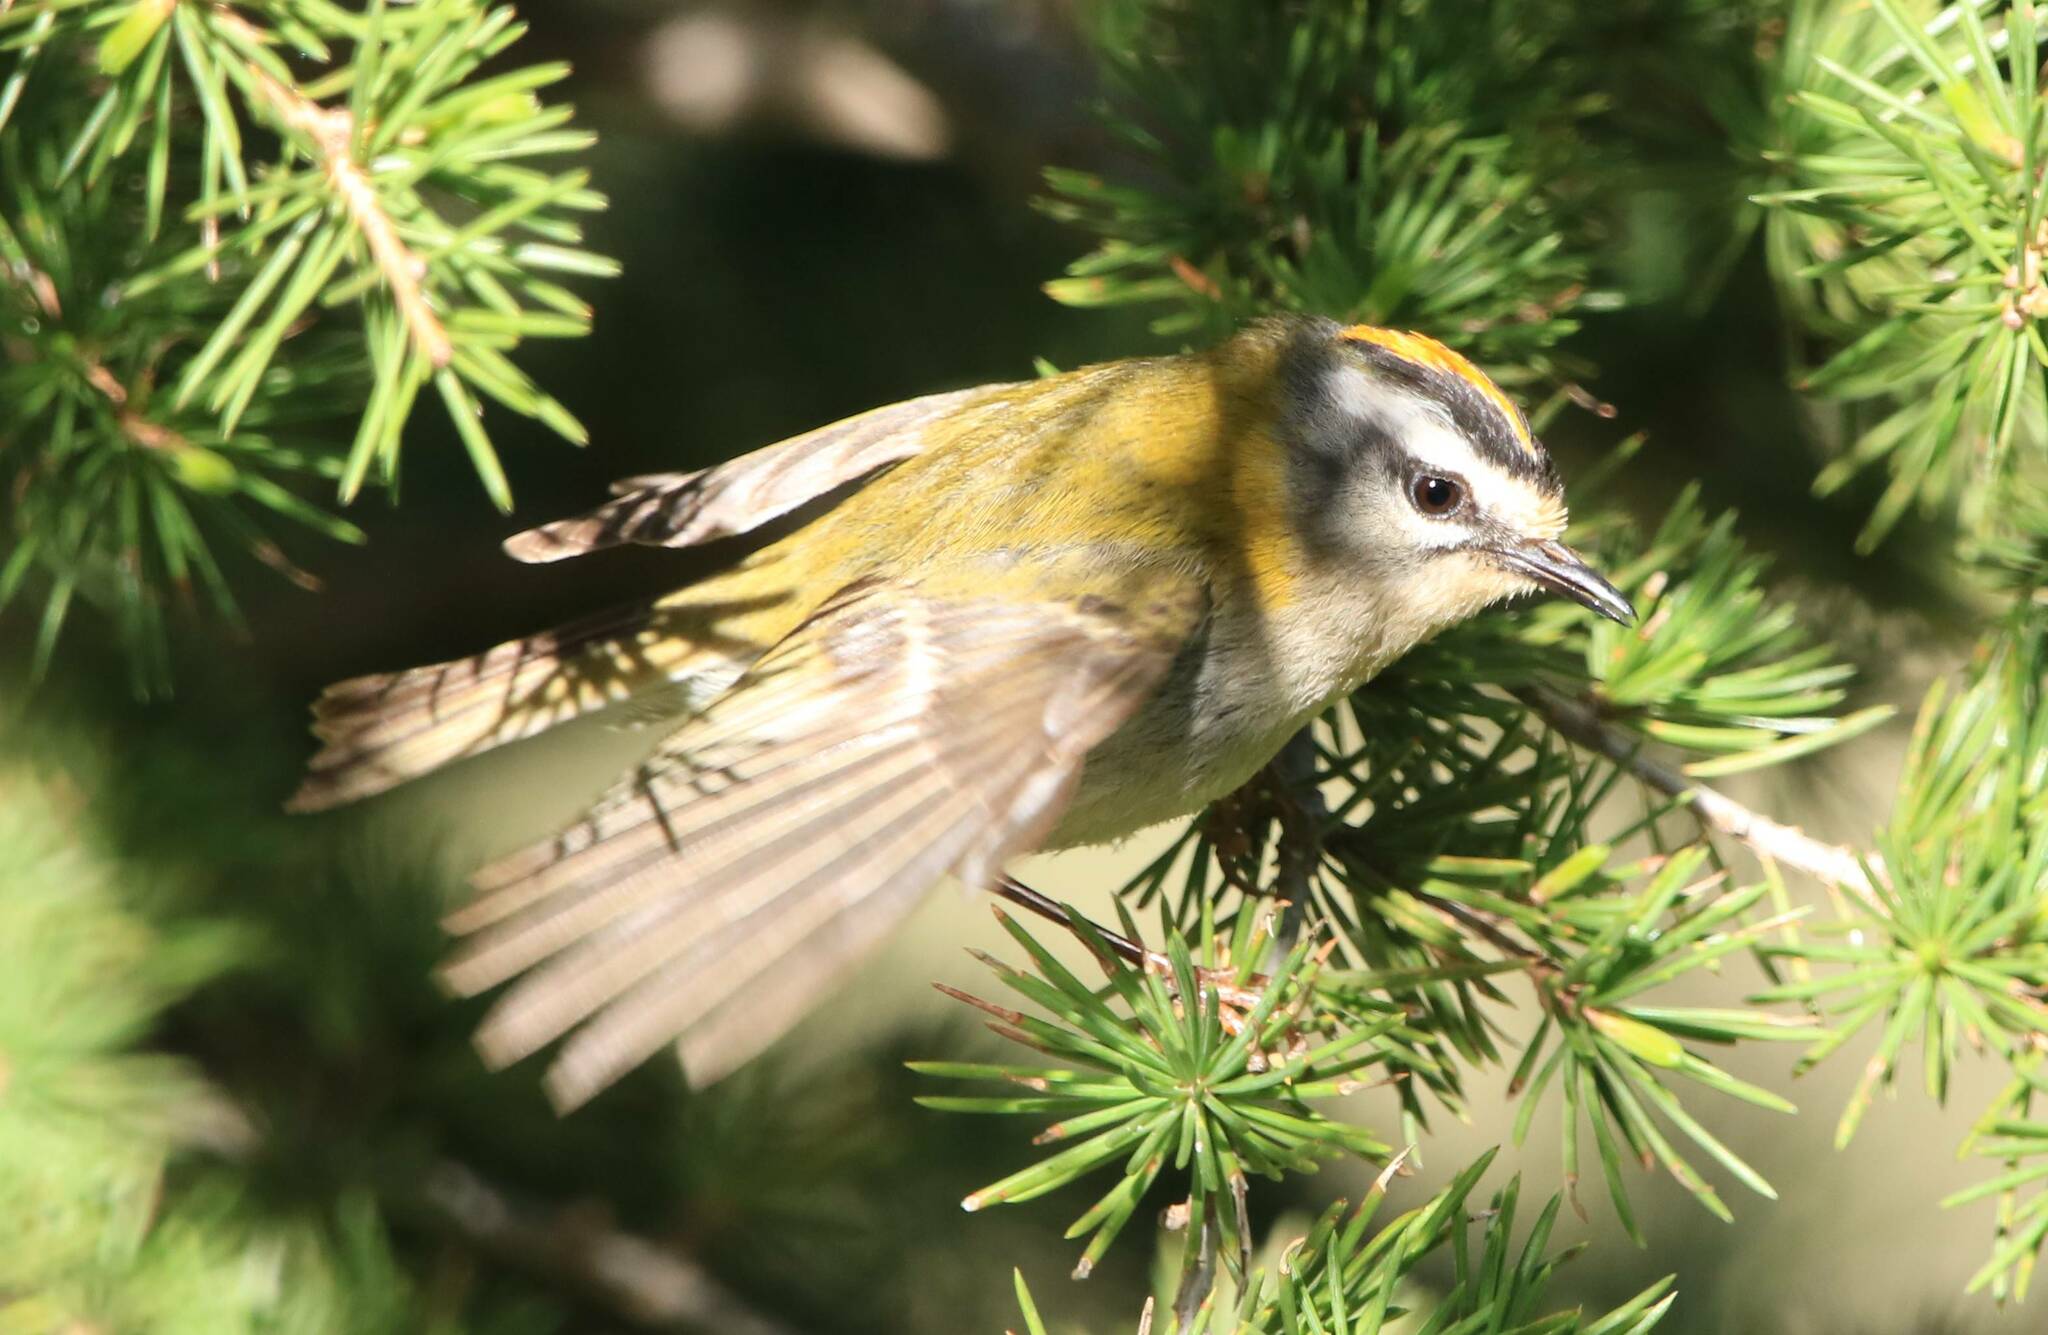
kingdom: Animalia
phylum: Chordata
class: Aves
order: Passeriformes
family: Regulidae
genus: Regulus
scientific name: Regulus ignicapilla
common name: Firecrest
